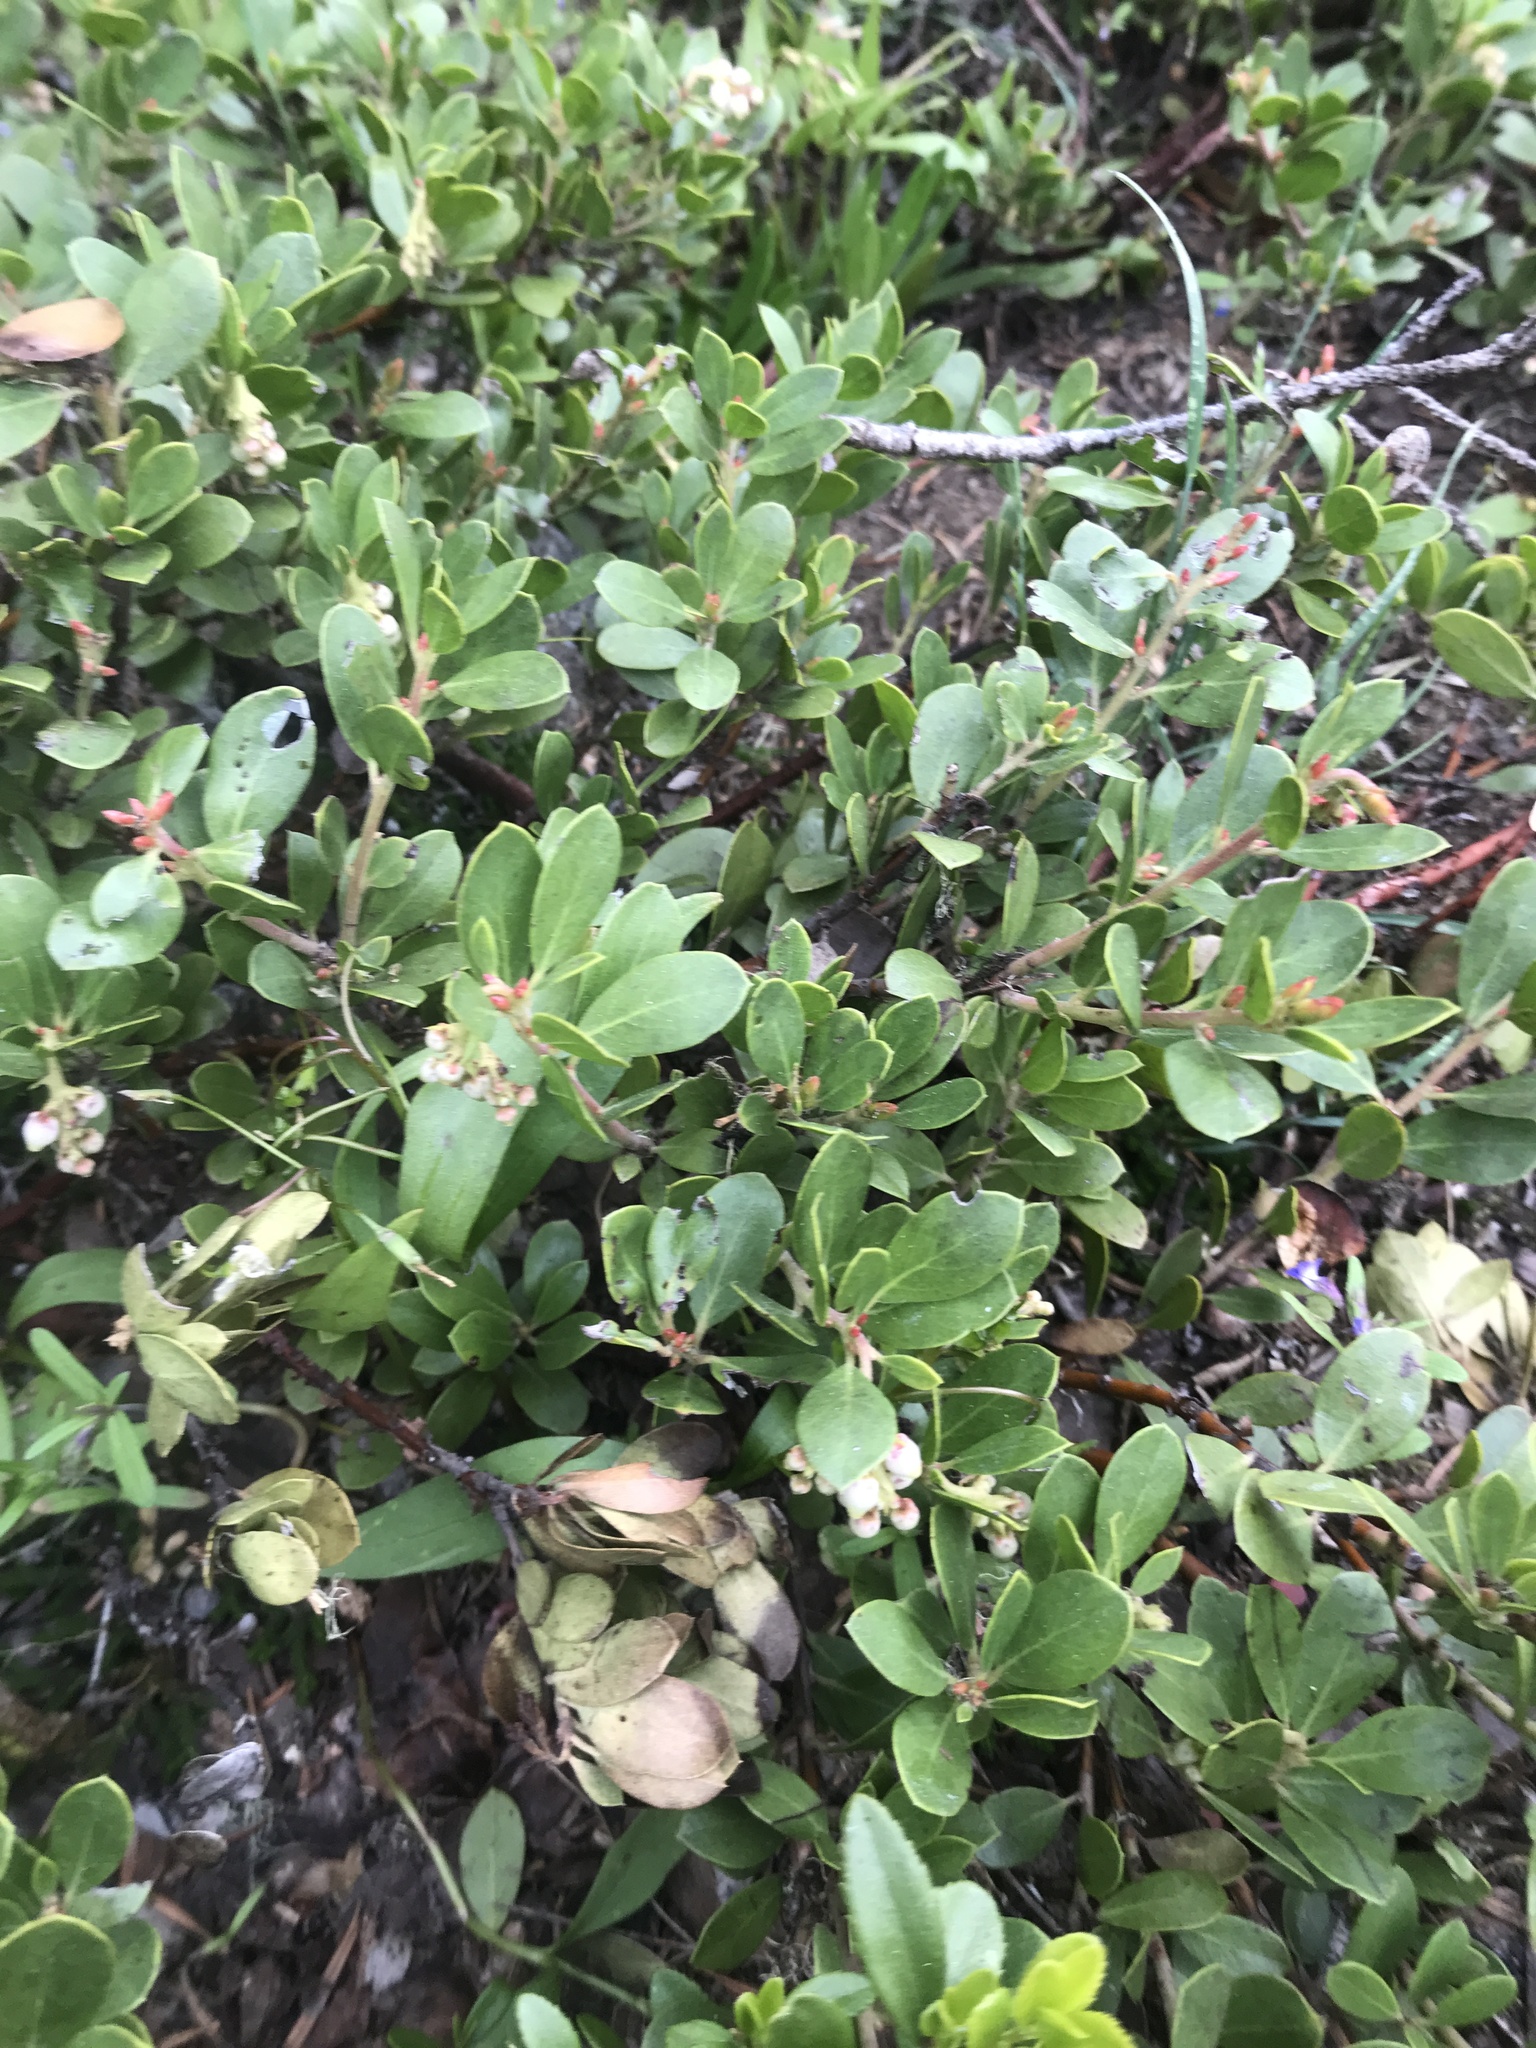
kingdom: Plantae
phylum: Tracheophyta
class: Magnoliopsida
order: Ericales
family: Ericaceae
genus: Arctostaphylos
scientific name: Arctostaphylos nevadensis
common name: Pinemat manzanita
